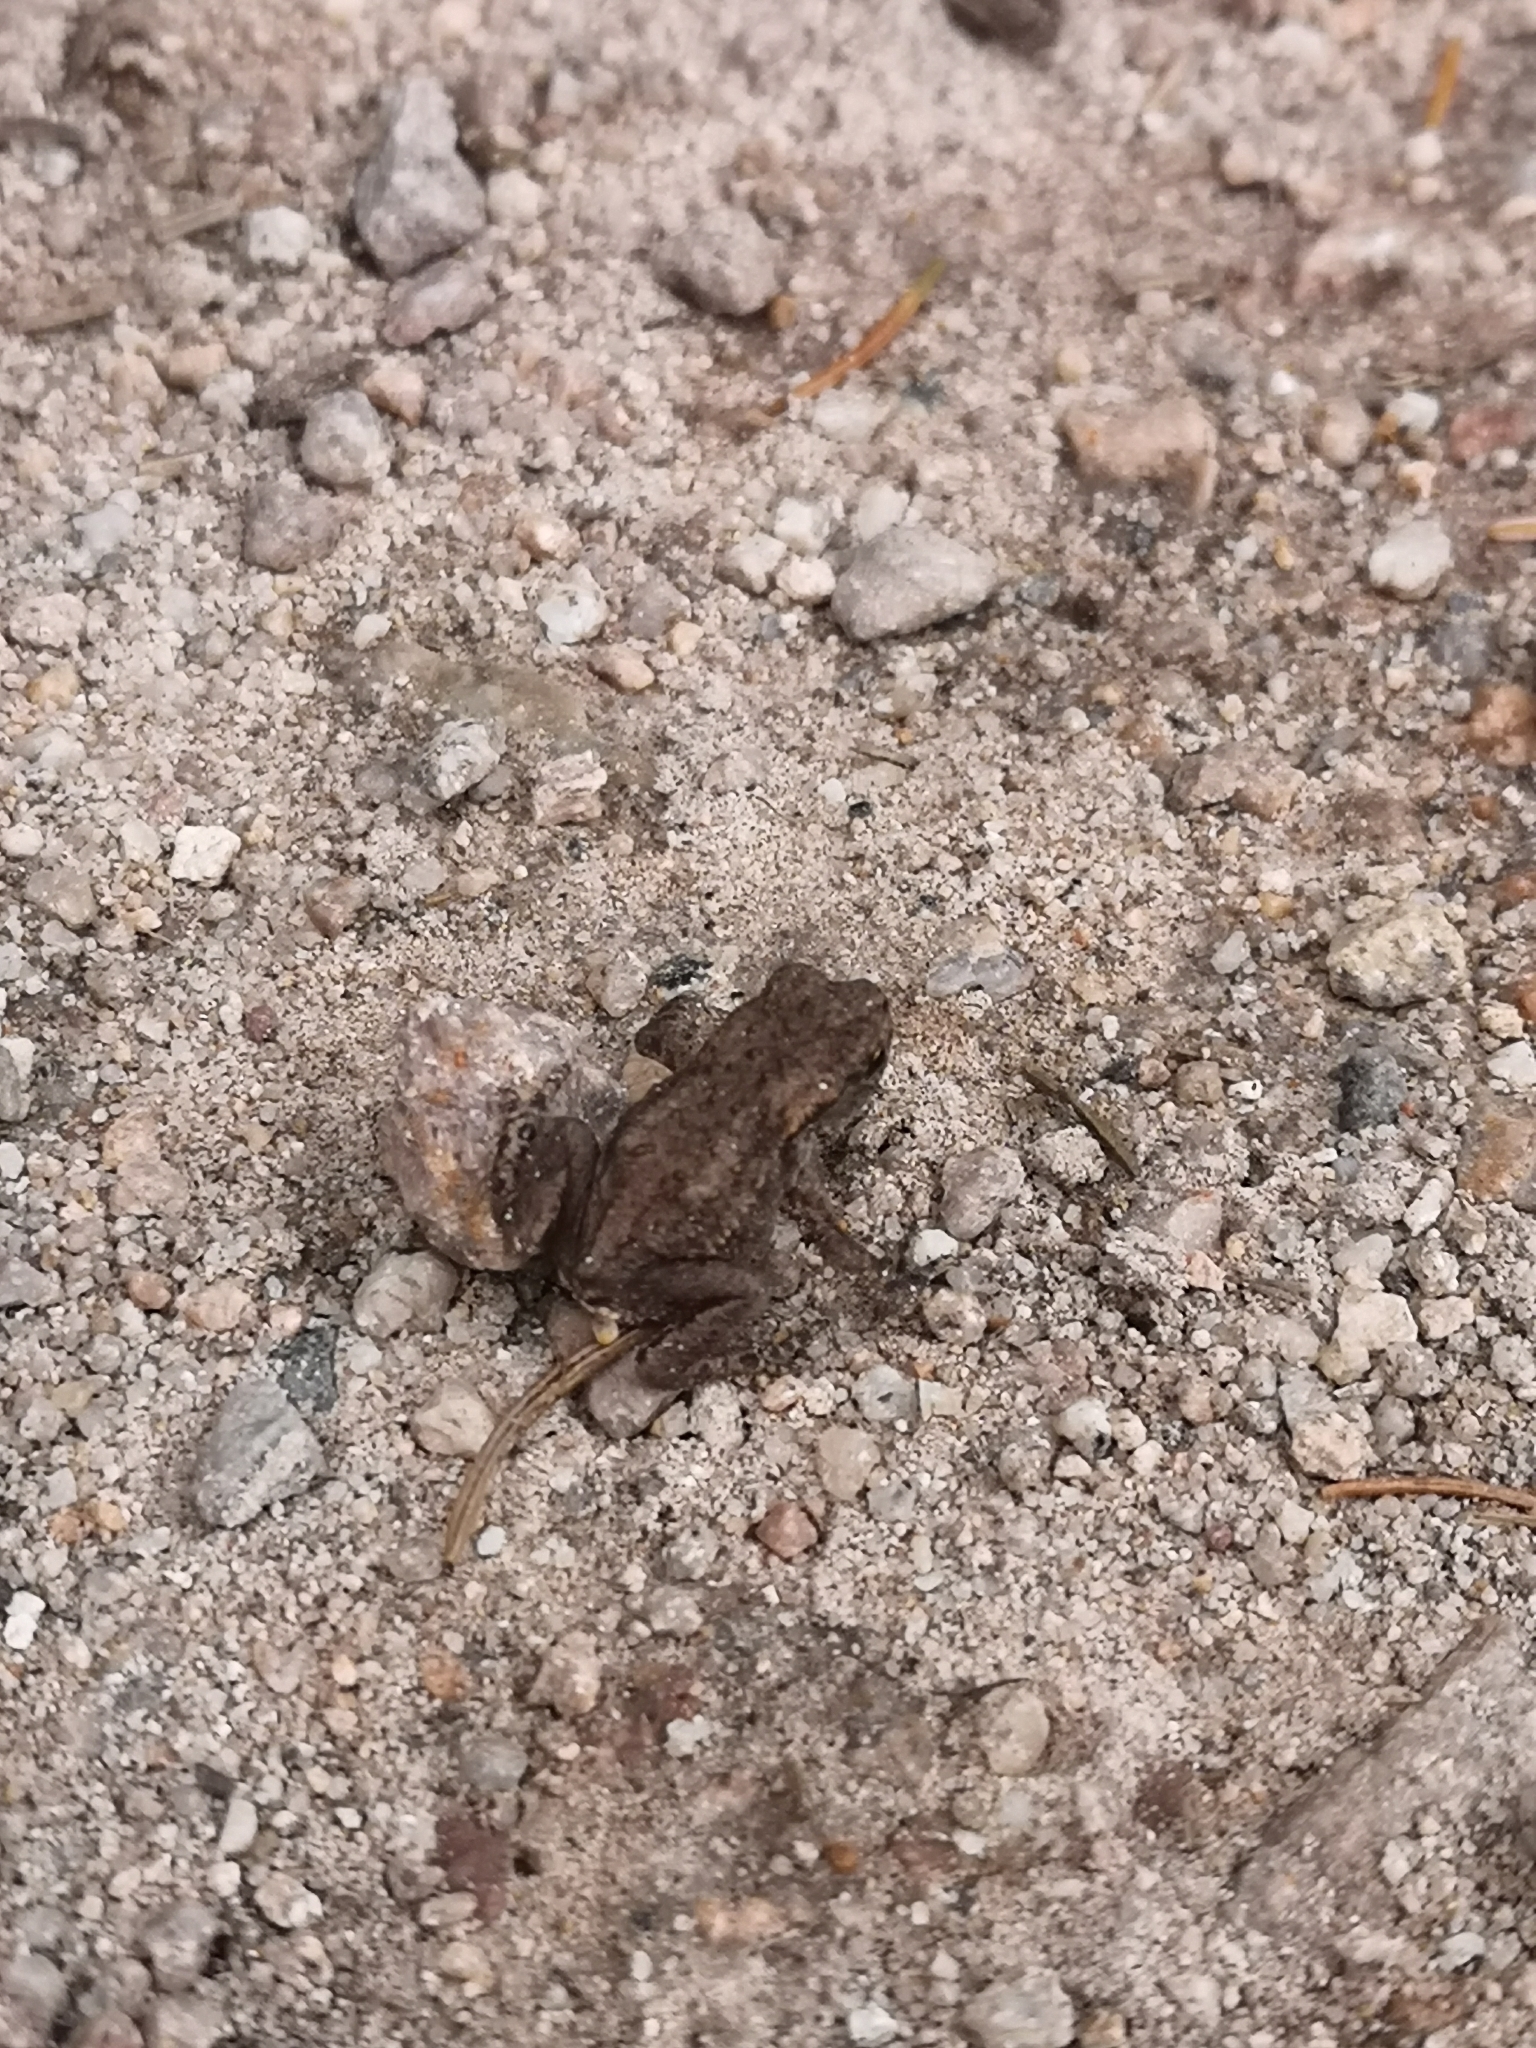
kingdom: Animalia
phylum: Chordata
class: Amphibia
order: Anura
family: Bufonidae
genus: Bufo
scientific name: Bufo bufo
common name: Common toad
